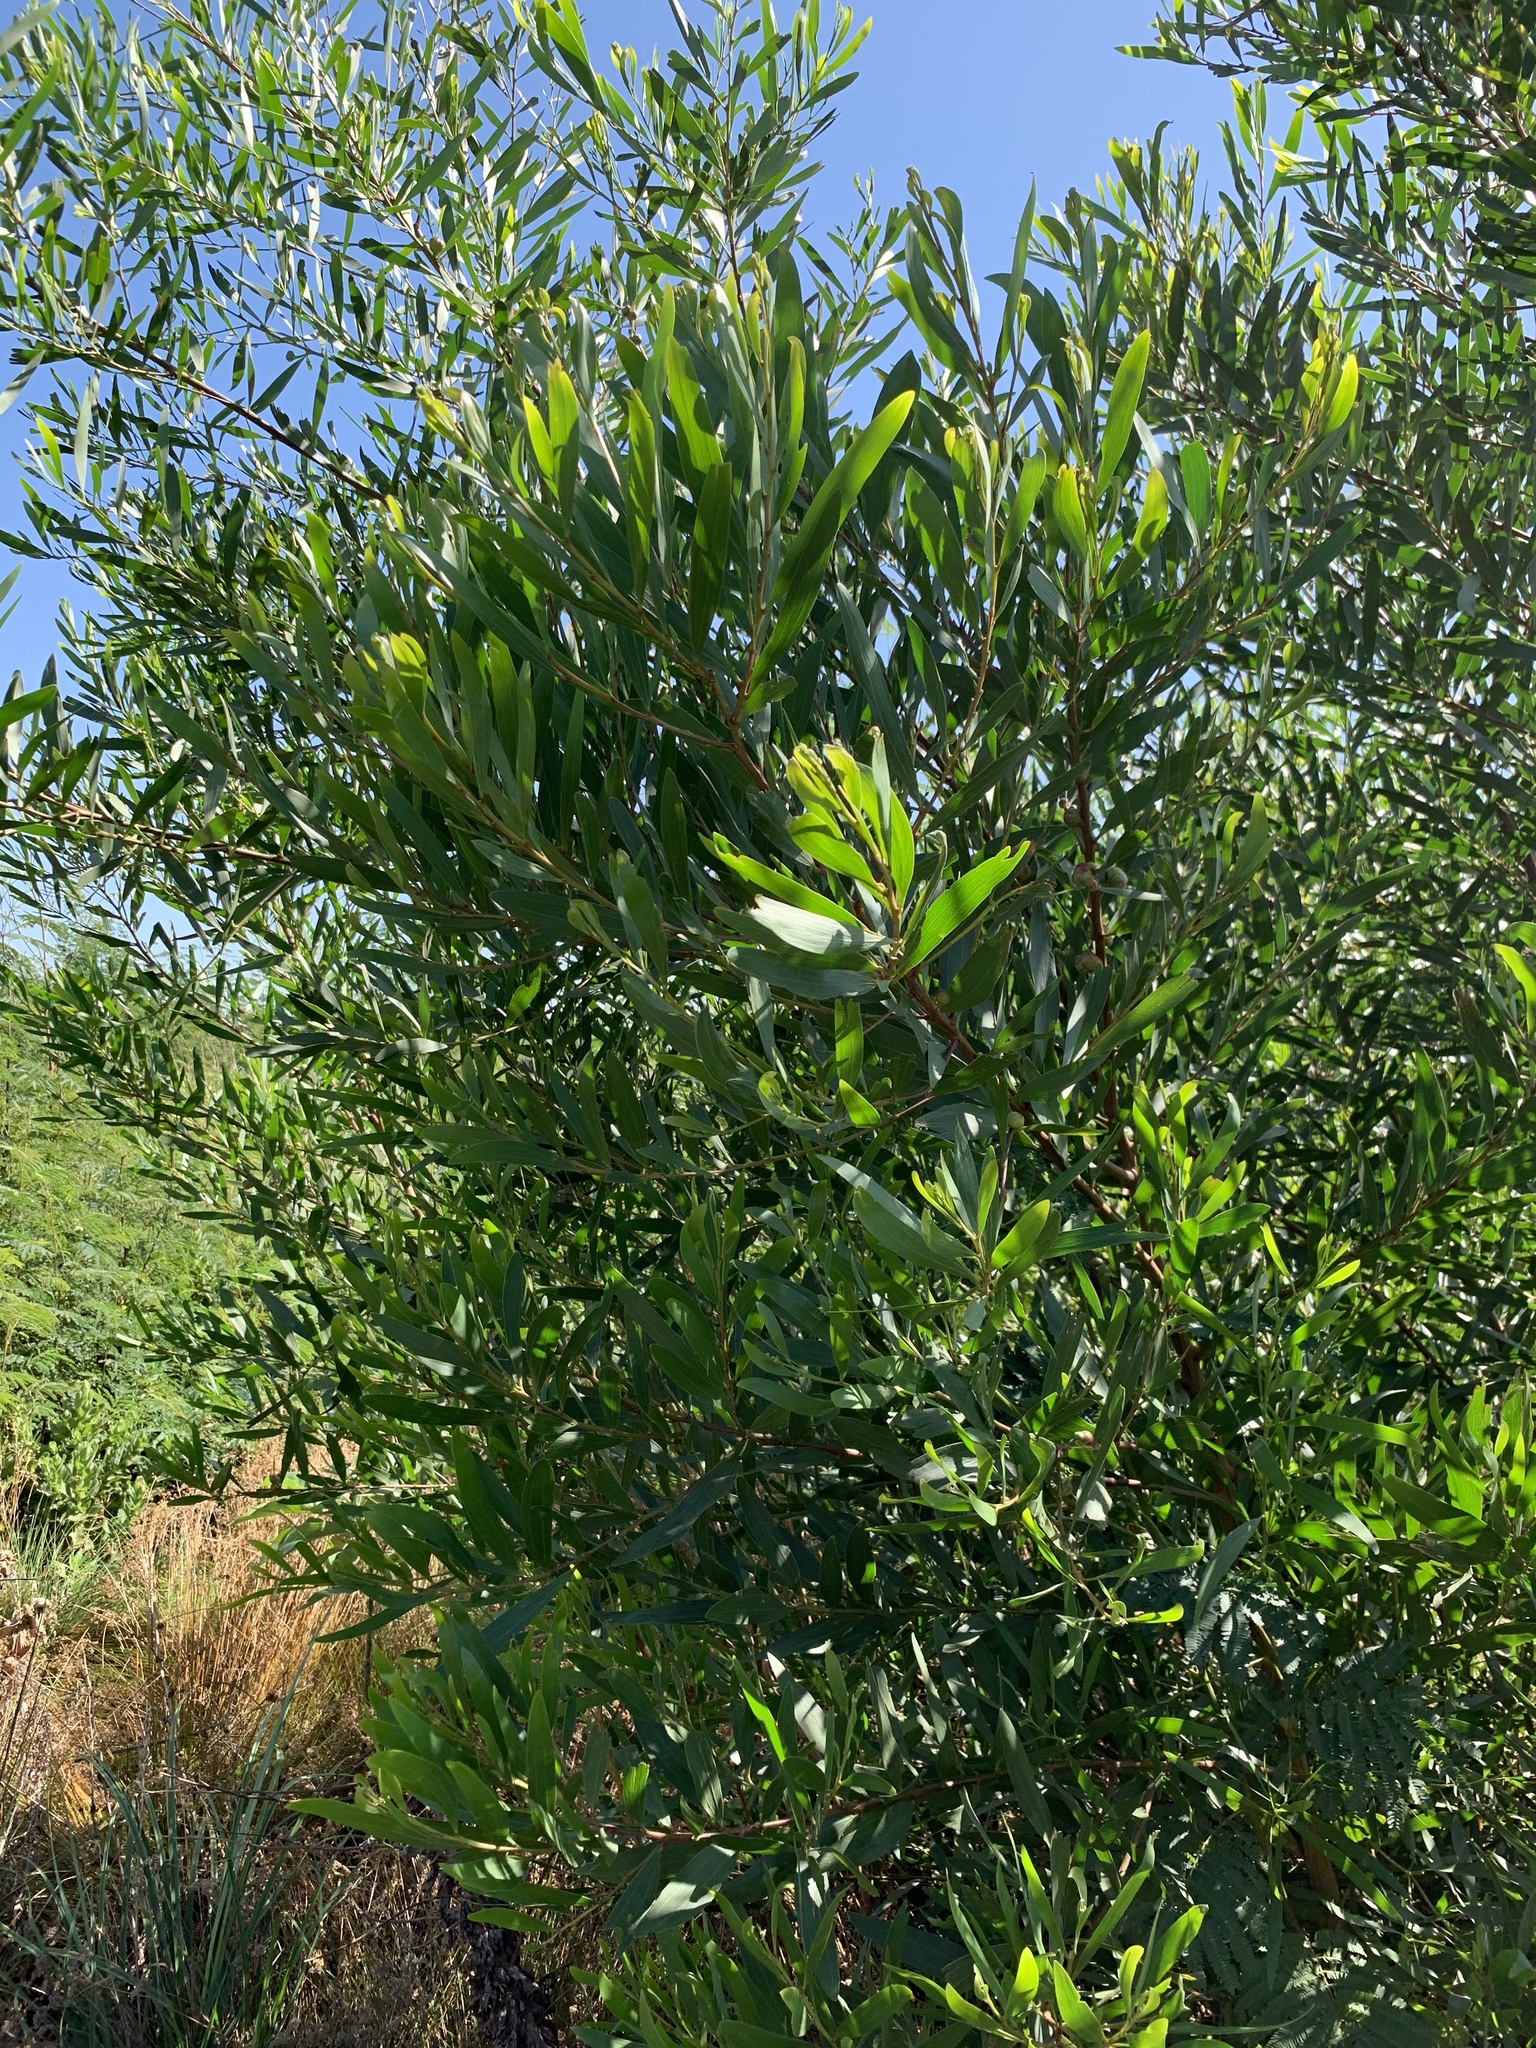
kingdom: Plantae
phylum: Tracheophyta
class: Magnoliopsida
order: Fabales
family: Fabaceae
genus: Acacia
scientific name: Acacia longifolia
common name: Sydney golden wattle
